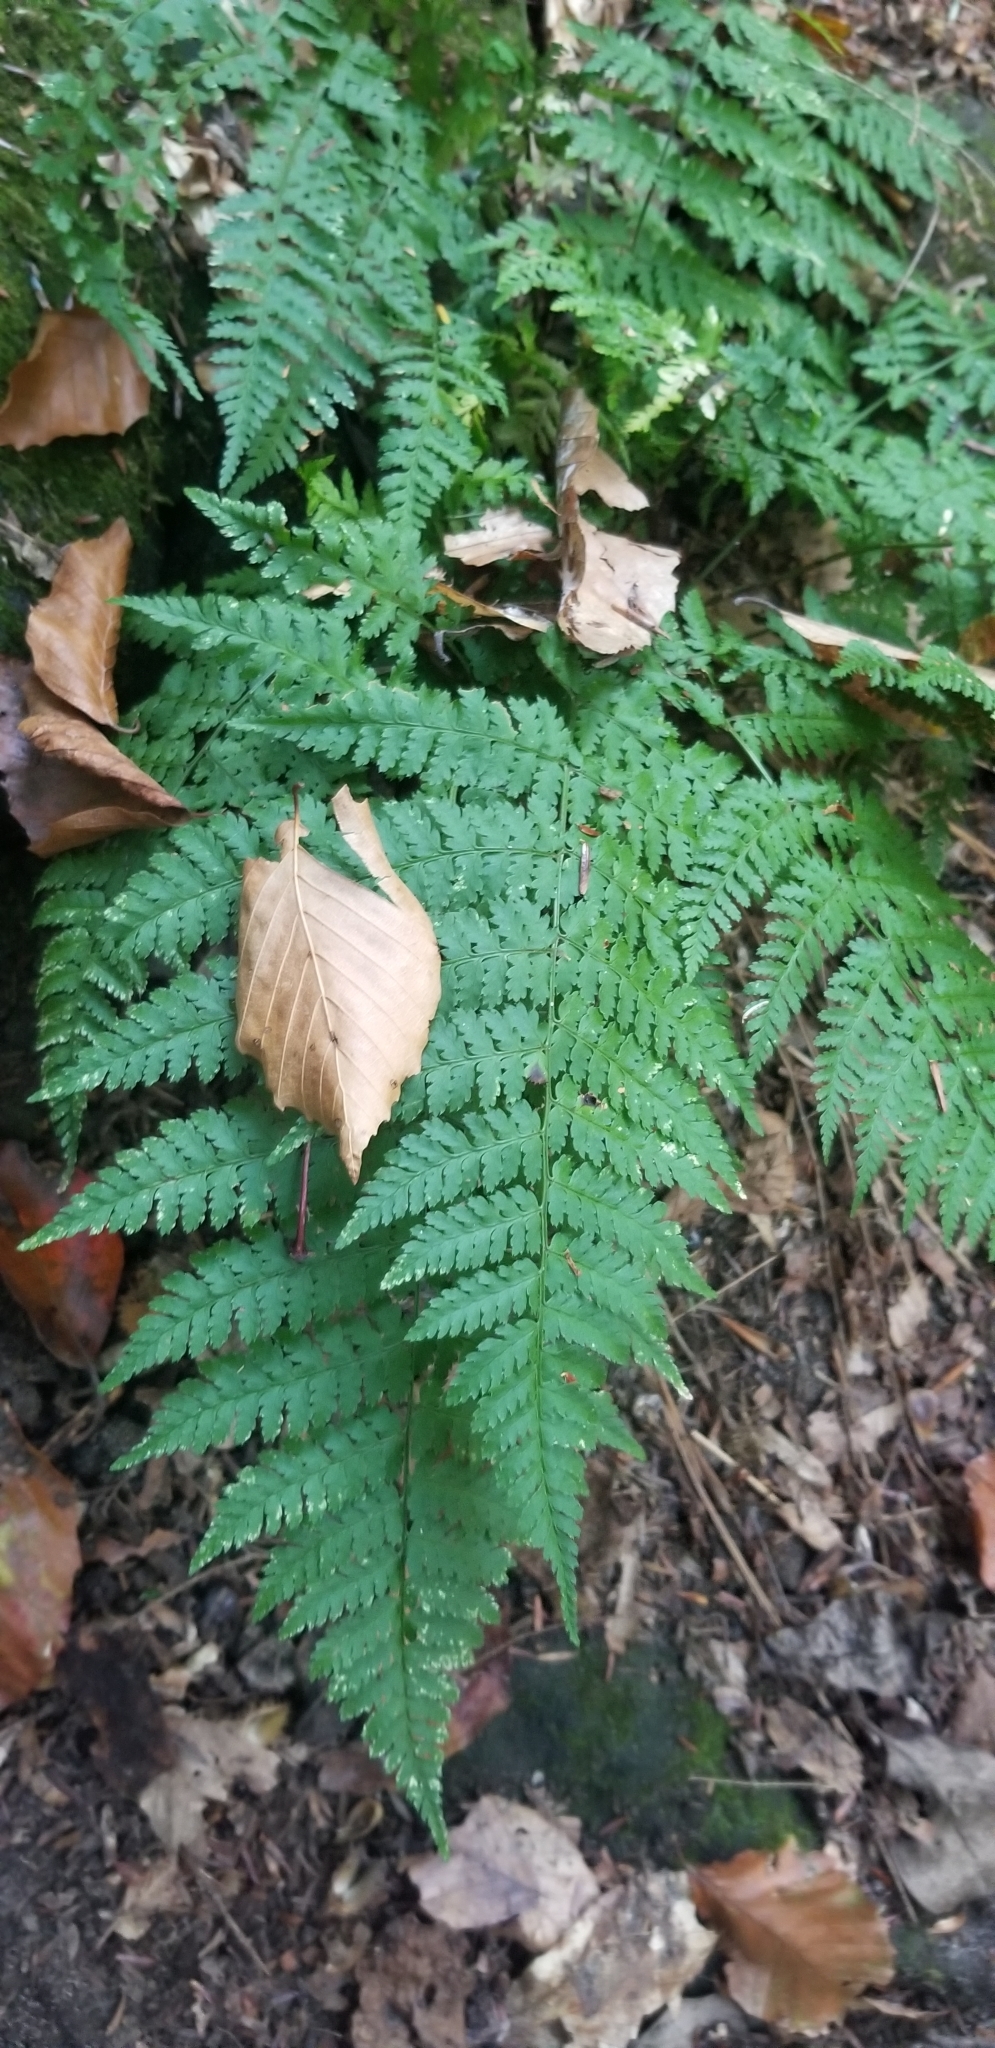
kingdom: Plantae
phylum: Tracheophyta
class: Polypodiopsida
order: Polypodiales
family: Dryopteridaceae
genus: Dryopteris
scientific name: Dryopteris intermedia
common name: Evergreen wood fern
